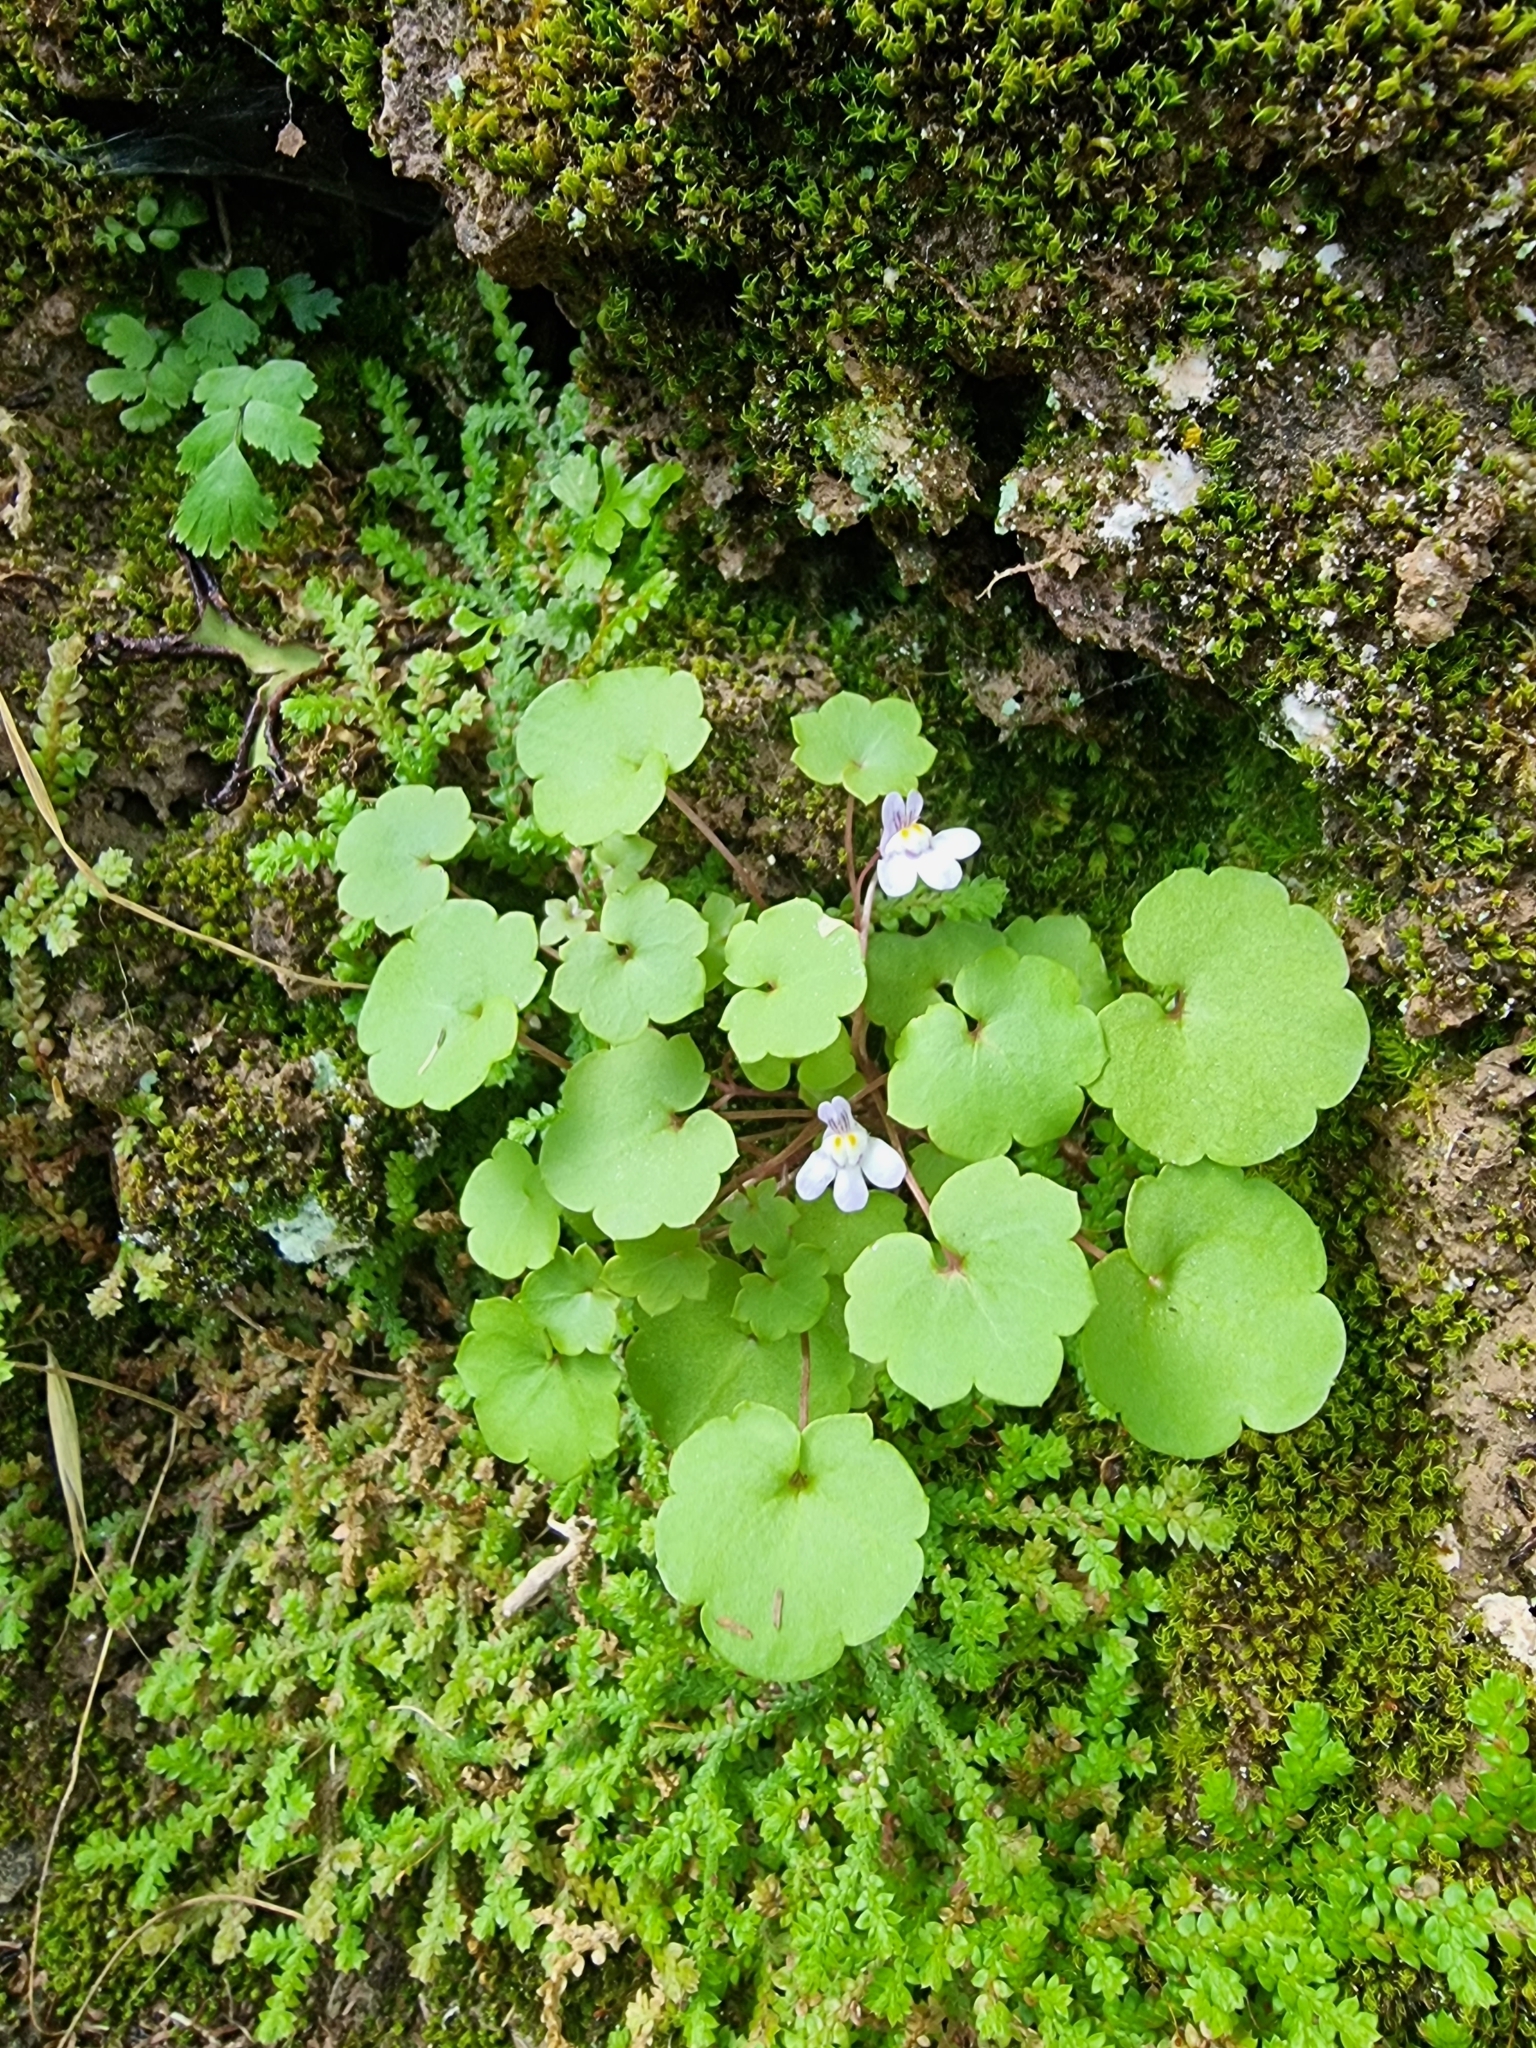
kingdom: Plantae
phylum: Tracheophyta
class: Magnoliopsida
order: Lamiales
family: Plantaginaceae
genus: Cymbalaria
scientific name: Cymbalaria muralis
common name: Ivy-leaved toadflax
